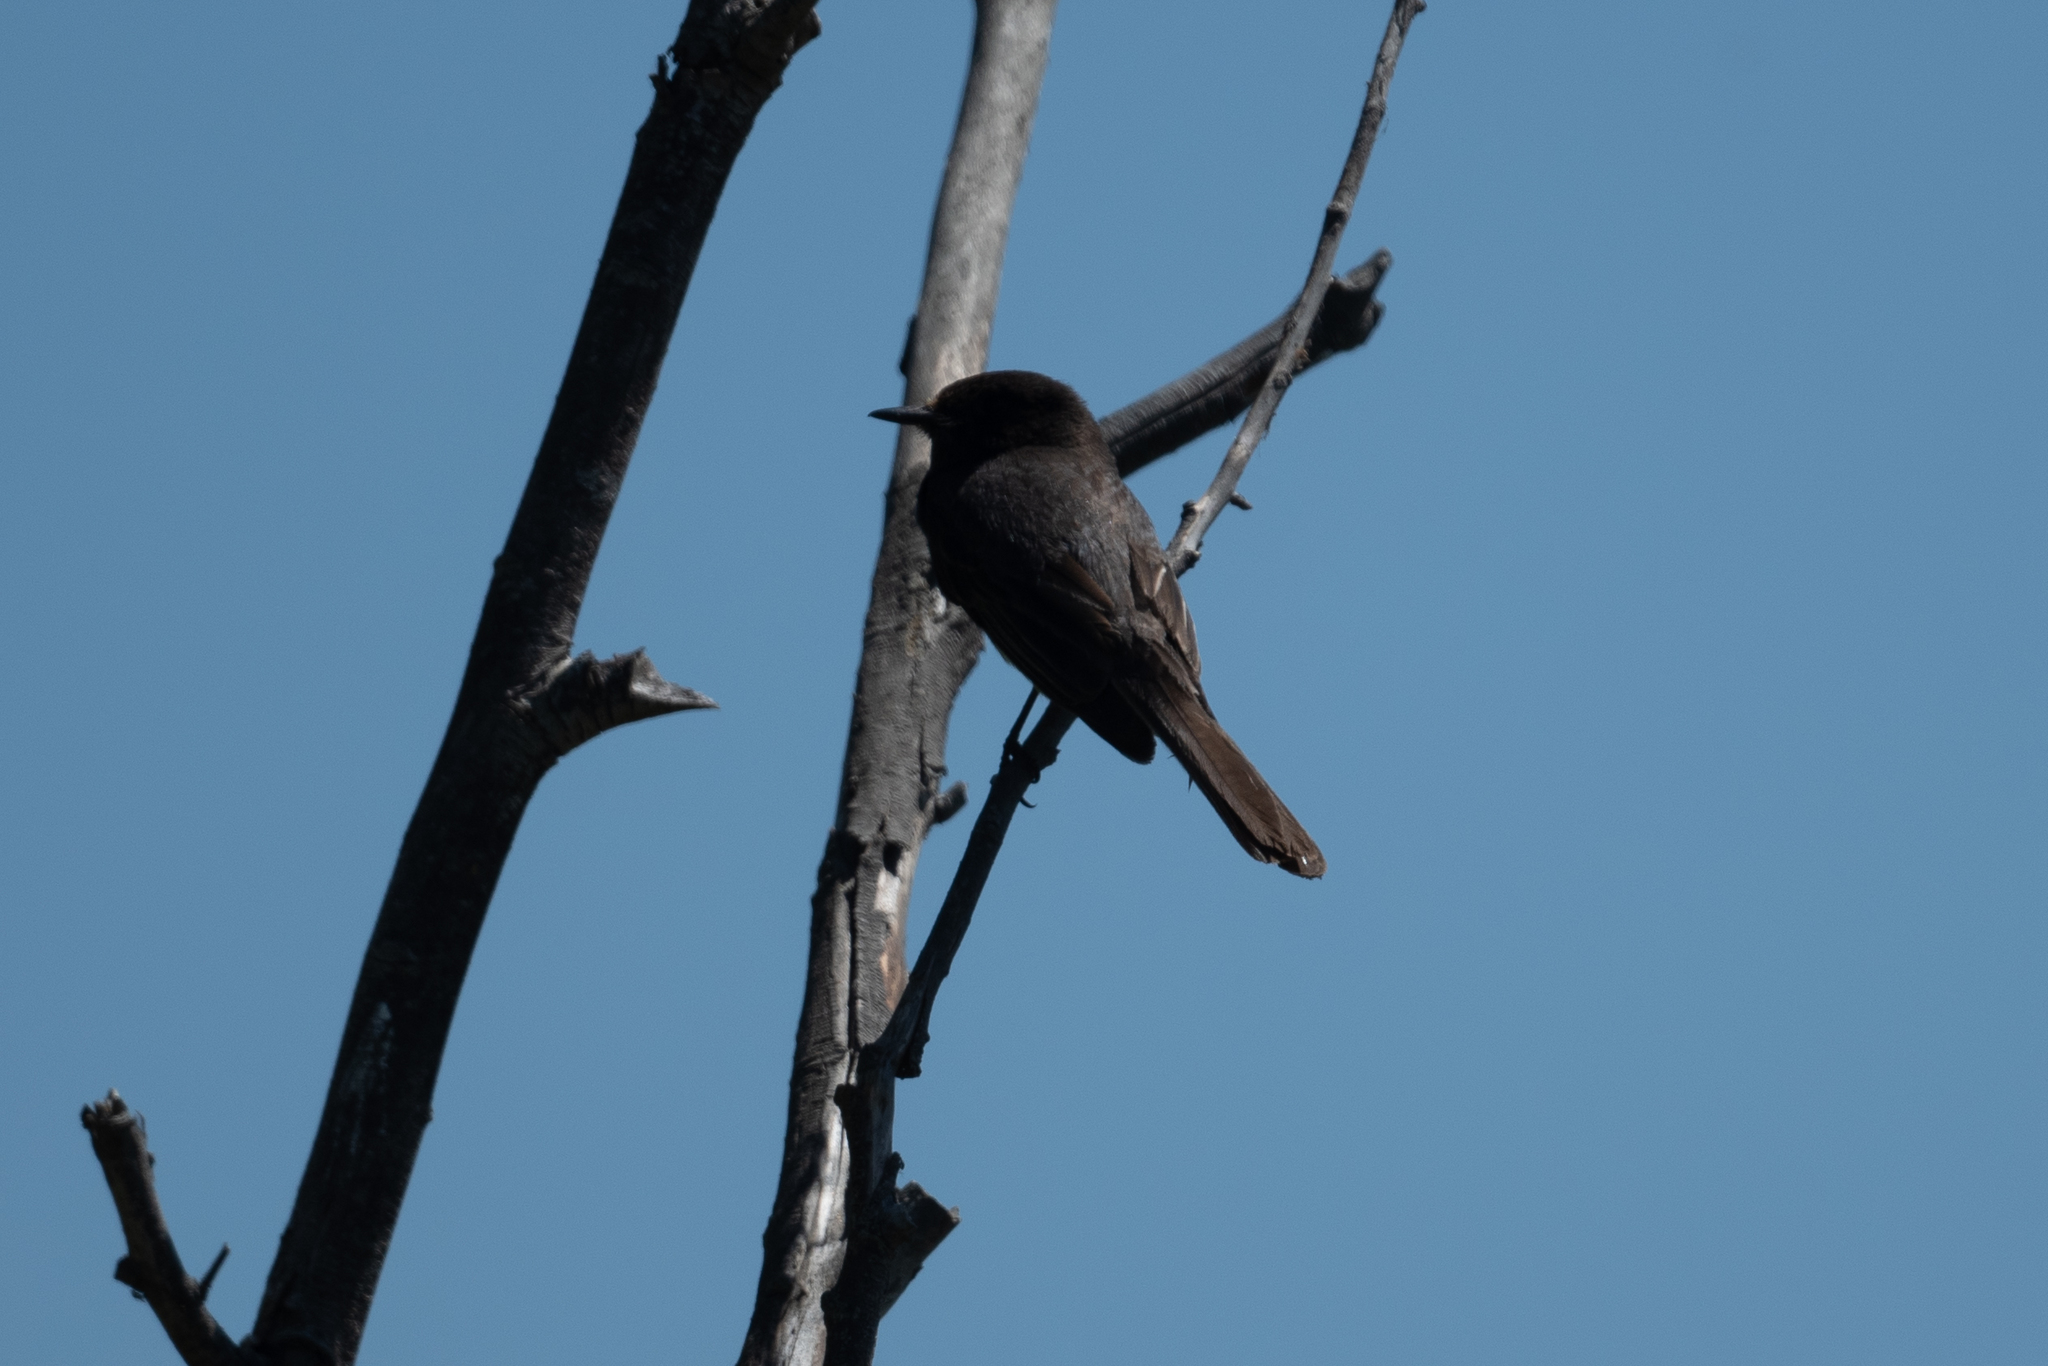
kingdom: Animalia
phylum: Chordata
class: Aves
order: Passeriformes
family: Tyrannidae
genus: Sayornis
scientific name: Sayornis nigricans
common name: Black phoebe
